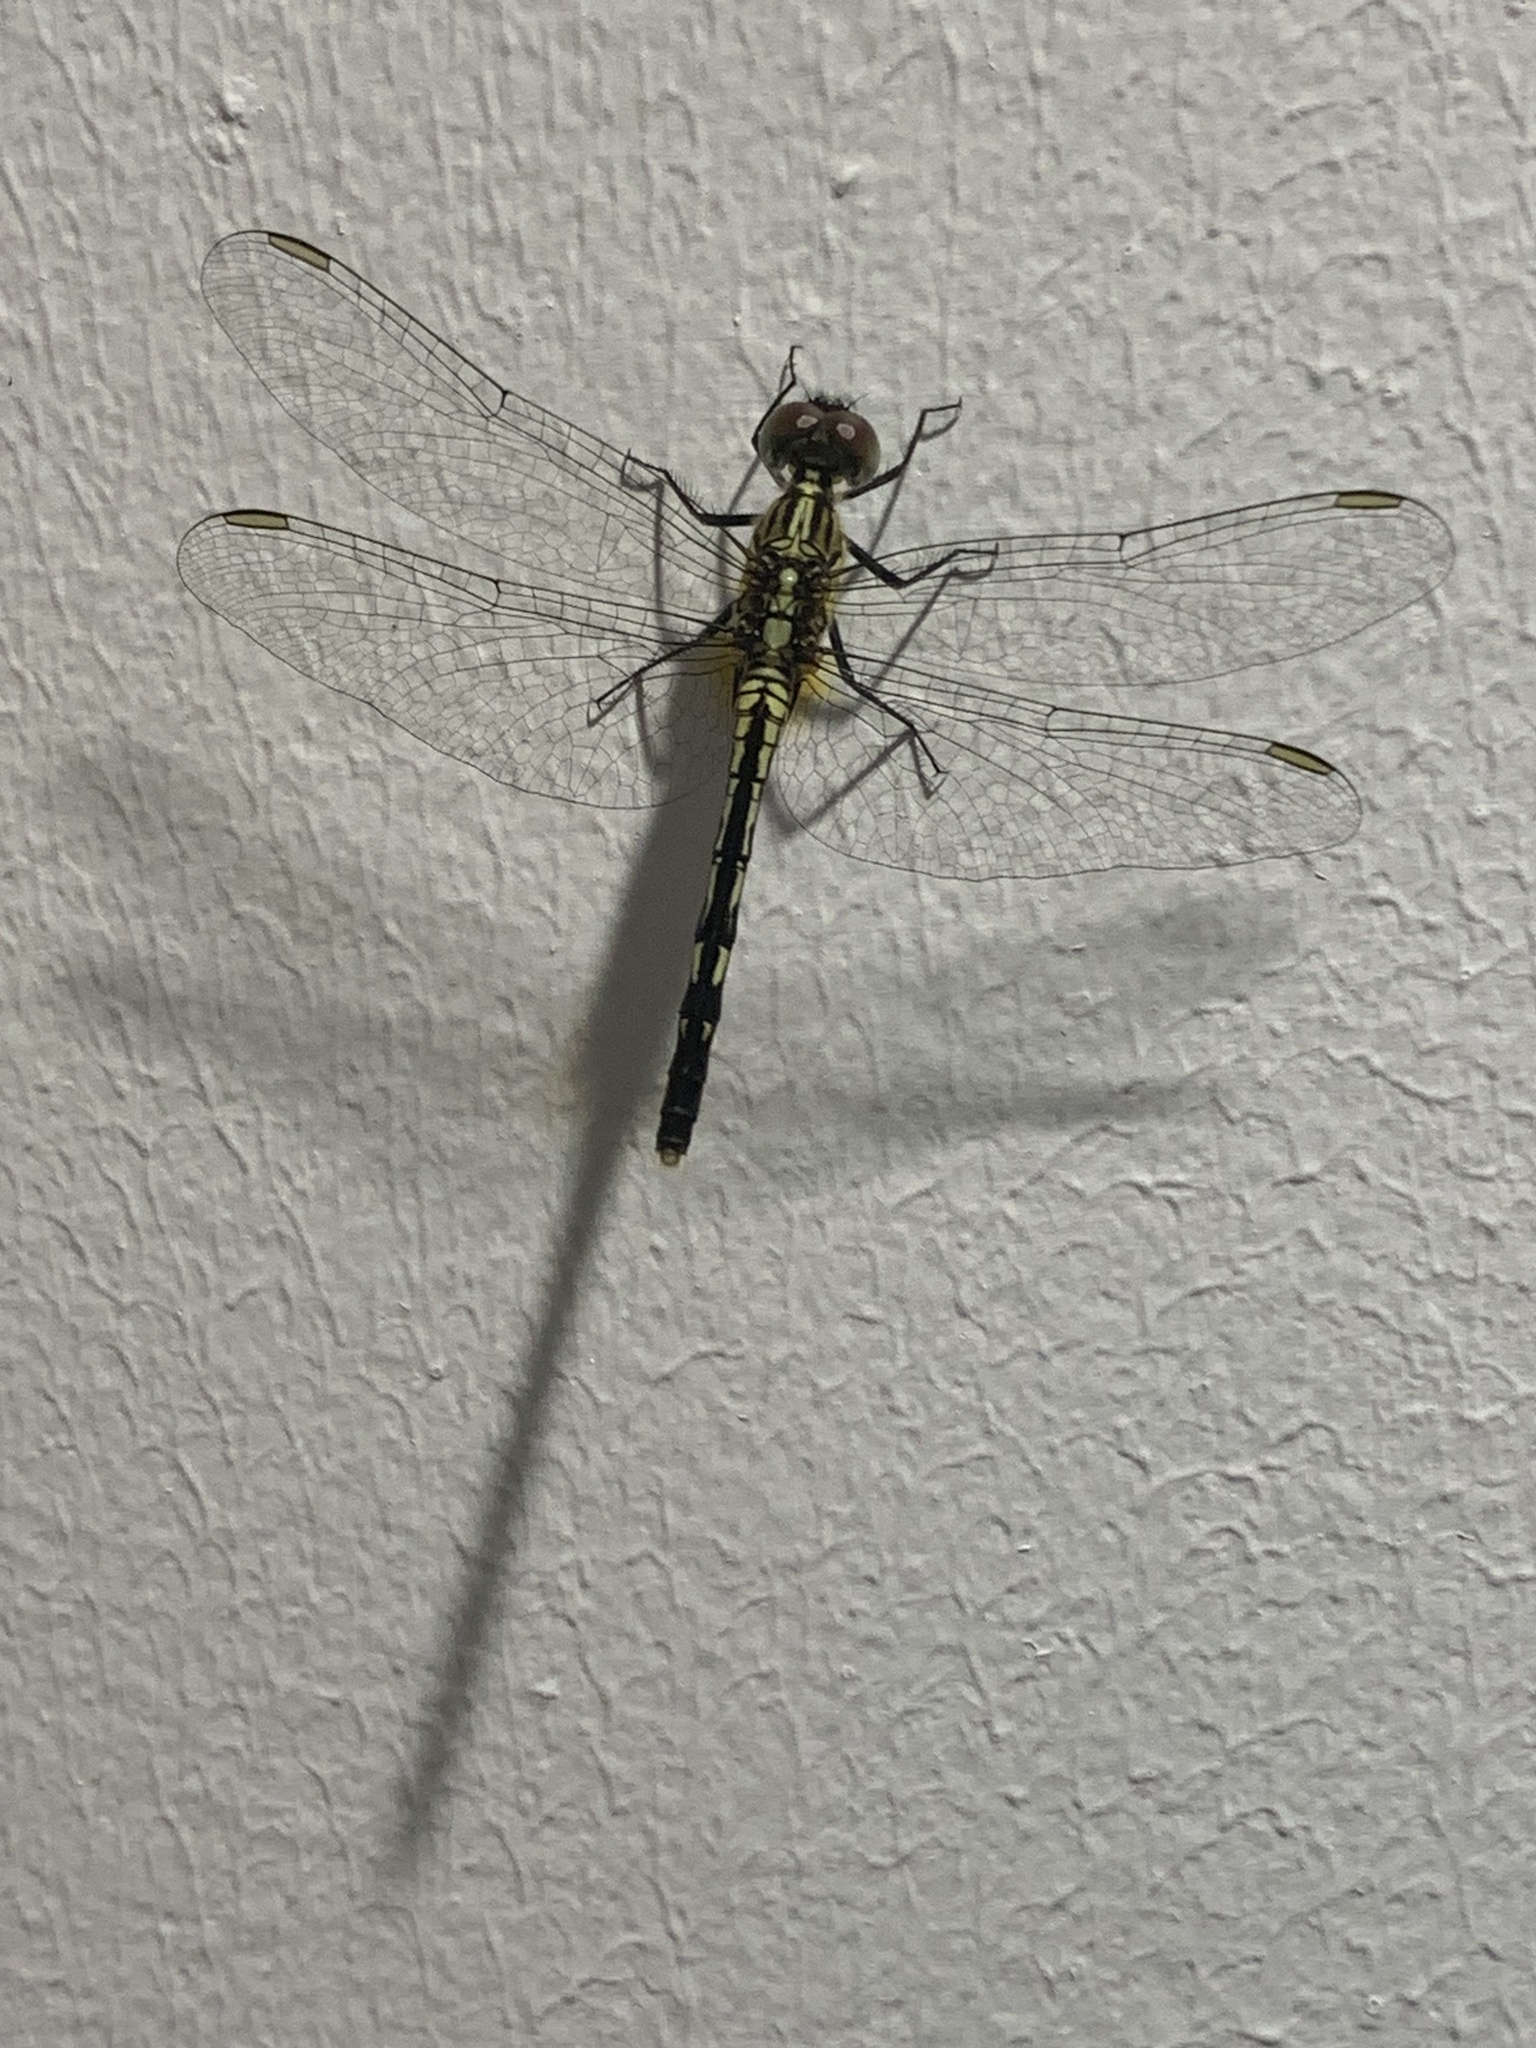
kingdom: Animalia
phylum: Arthropoda
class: Insecta
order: Odonata
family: Libellulidae
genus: Diplacodes
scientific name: Diplacodes trivialis
